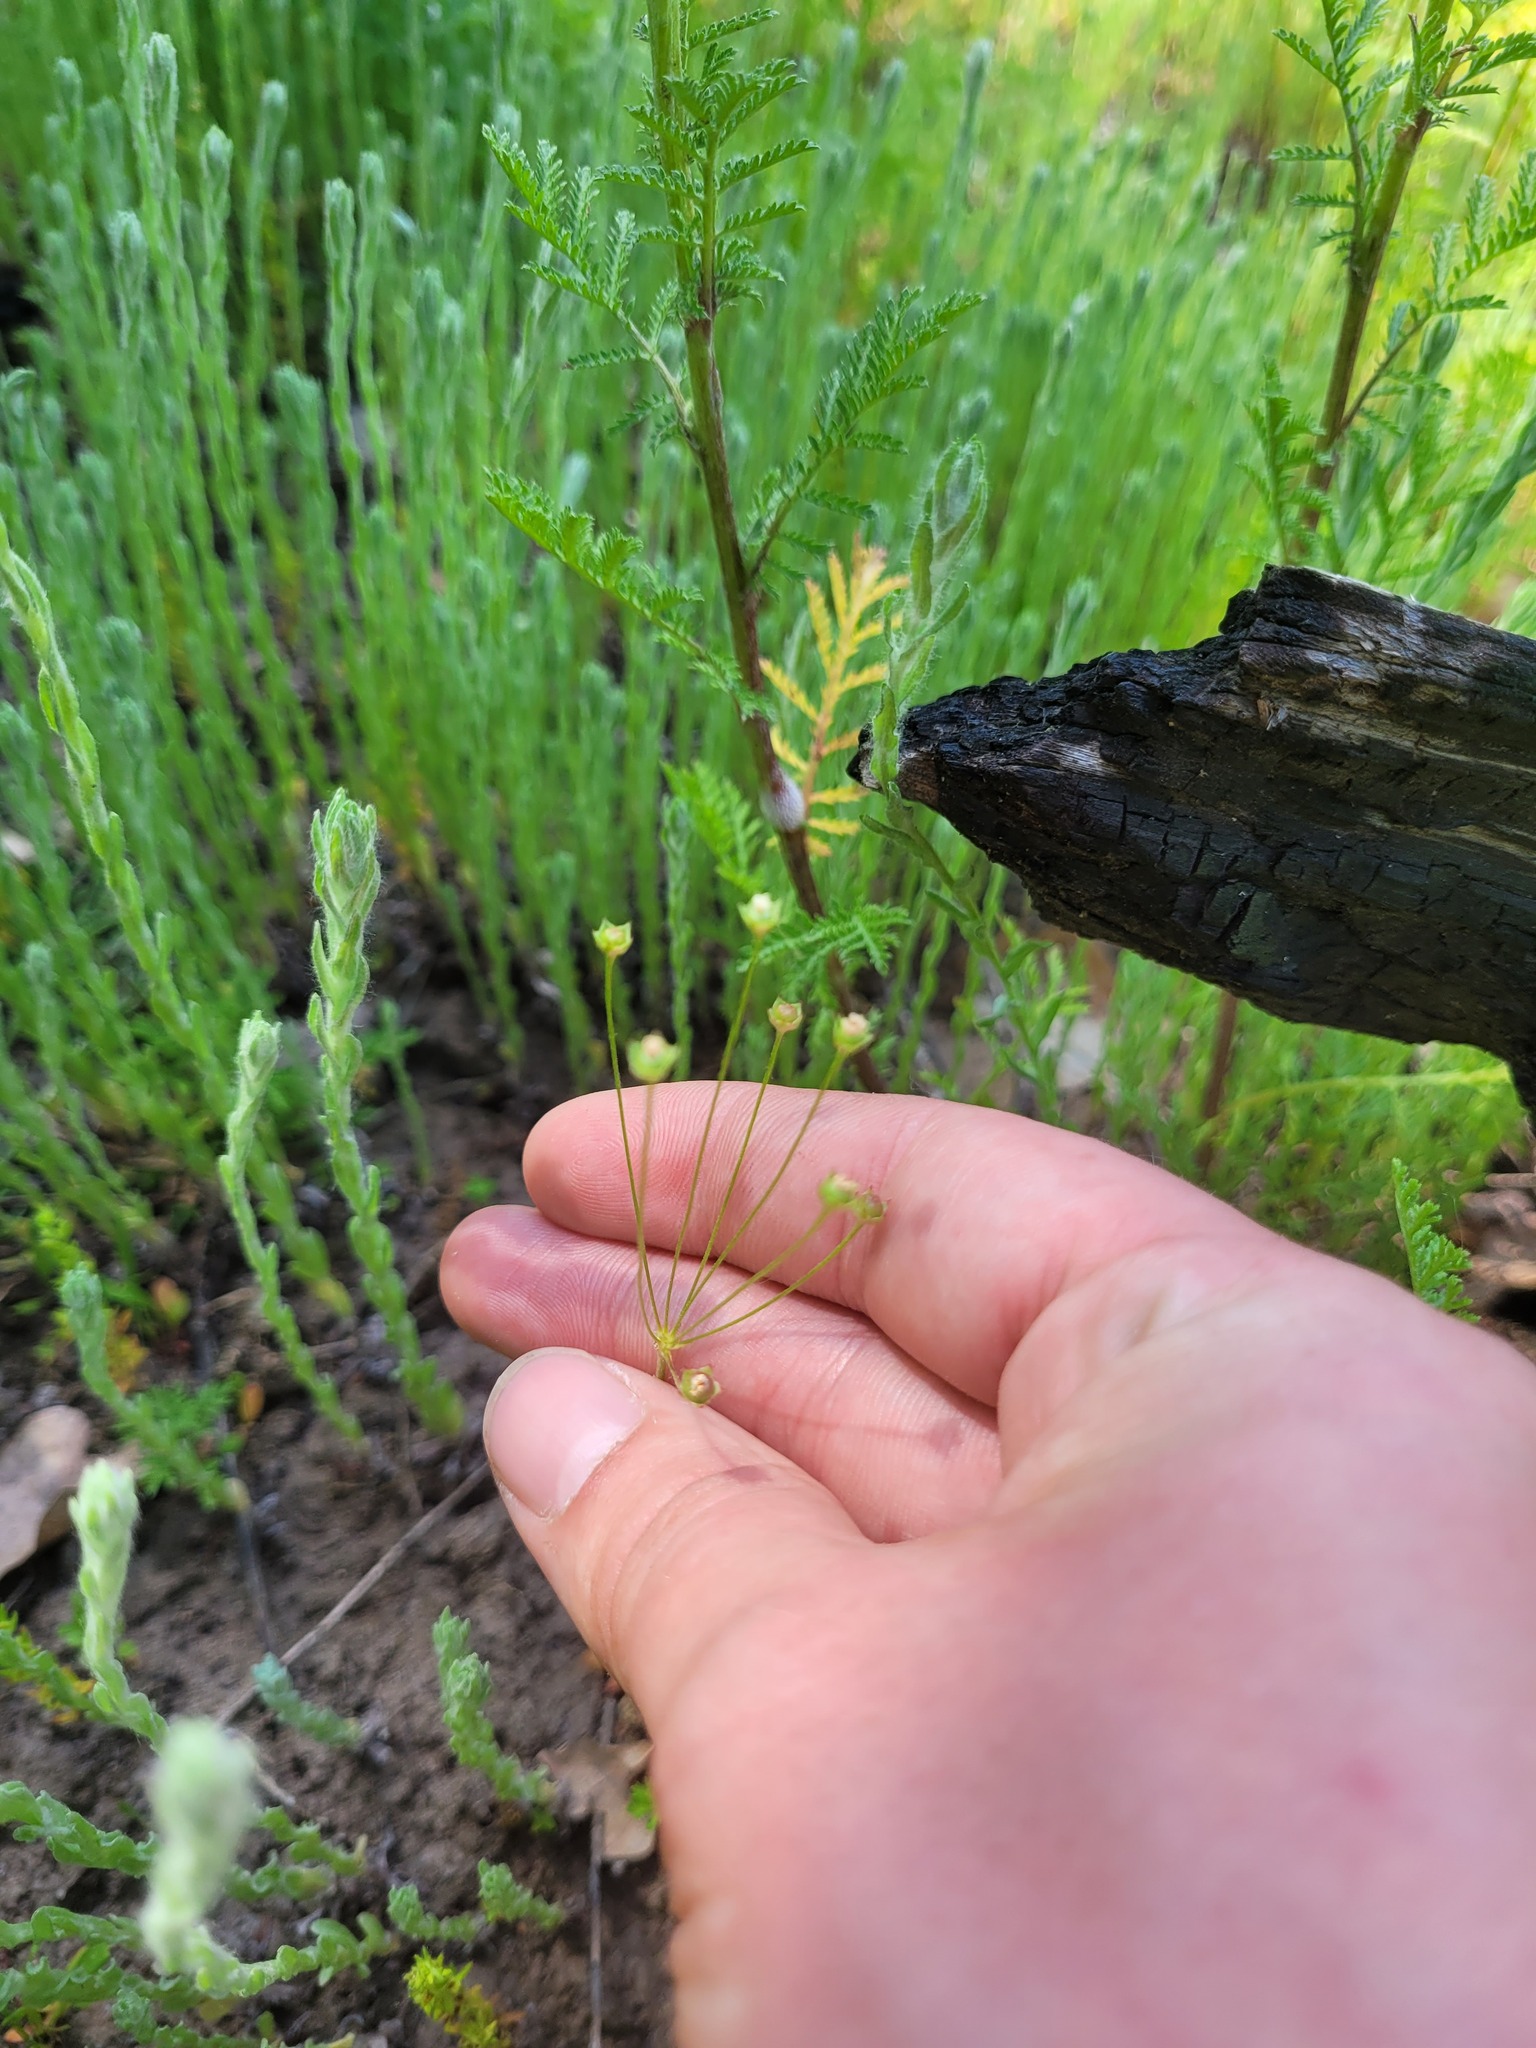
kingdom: Plantae
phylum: Tracheophyta
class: Magnoliopsida
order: Ericales
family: Primulaceae
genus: Androsace
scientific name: Androsace septentrionalis
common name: Hairy northern fairy-candelabra
